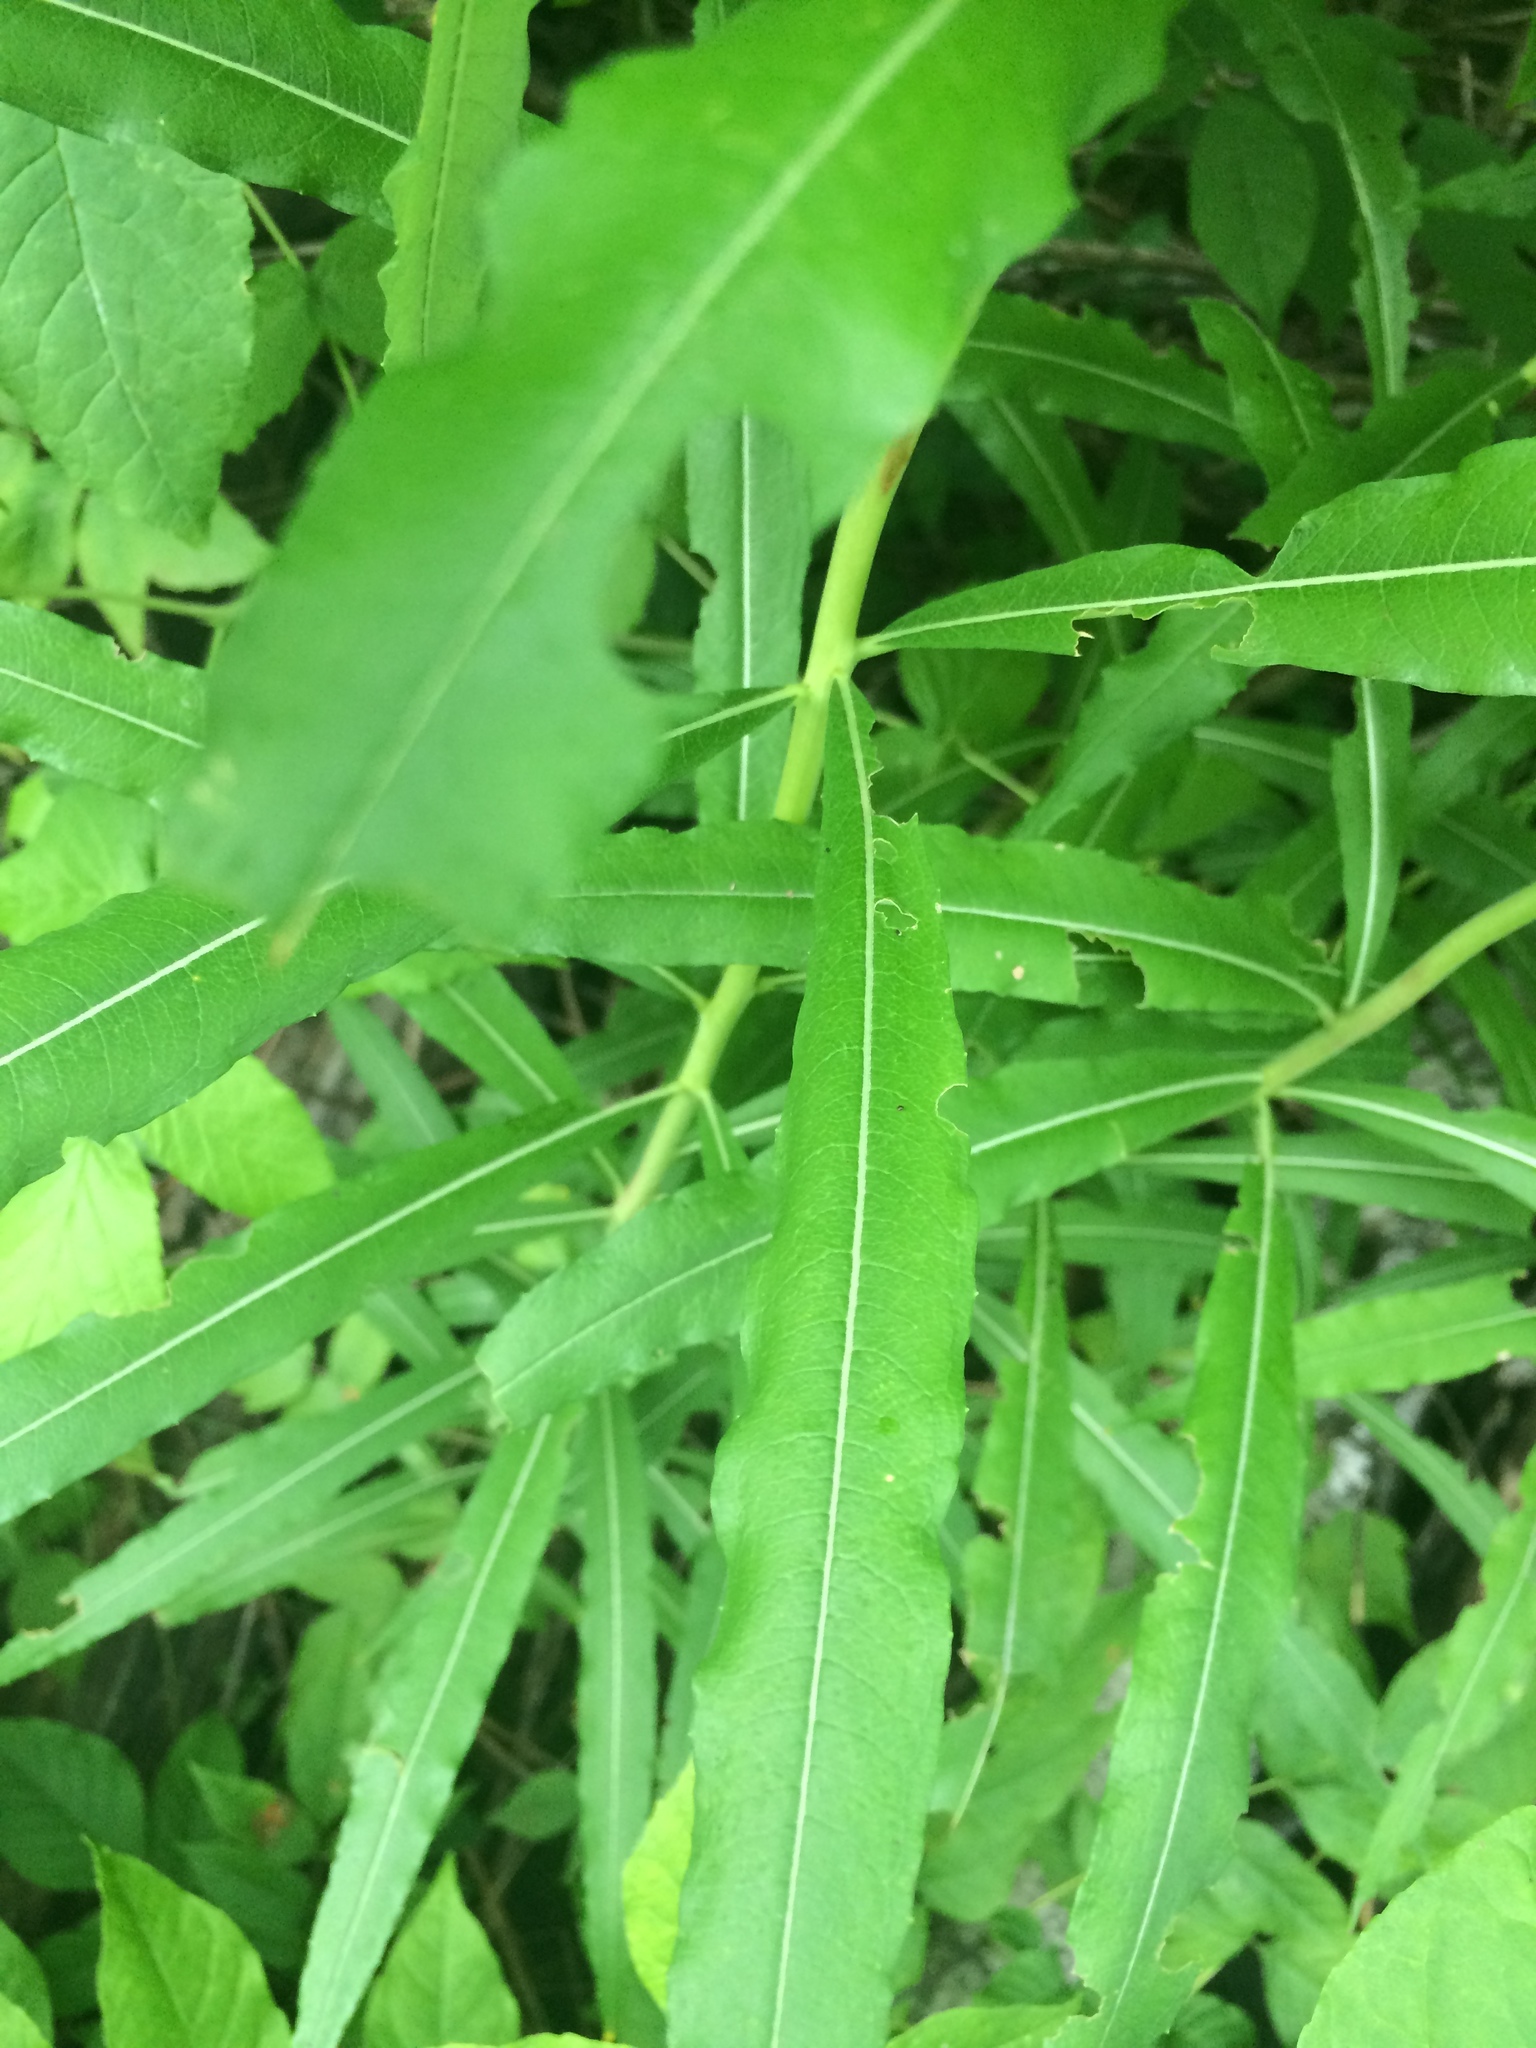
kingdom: Plantae
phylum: Tracheophyta
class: Magnoliopsida
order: Myrtales
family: Onagraceae
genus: Chamaenerion
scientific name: Chamaenerion angustifolium
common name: Fireweed
